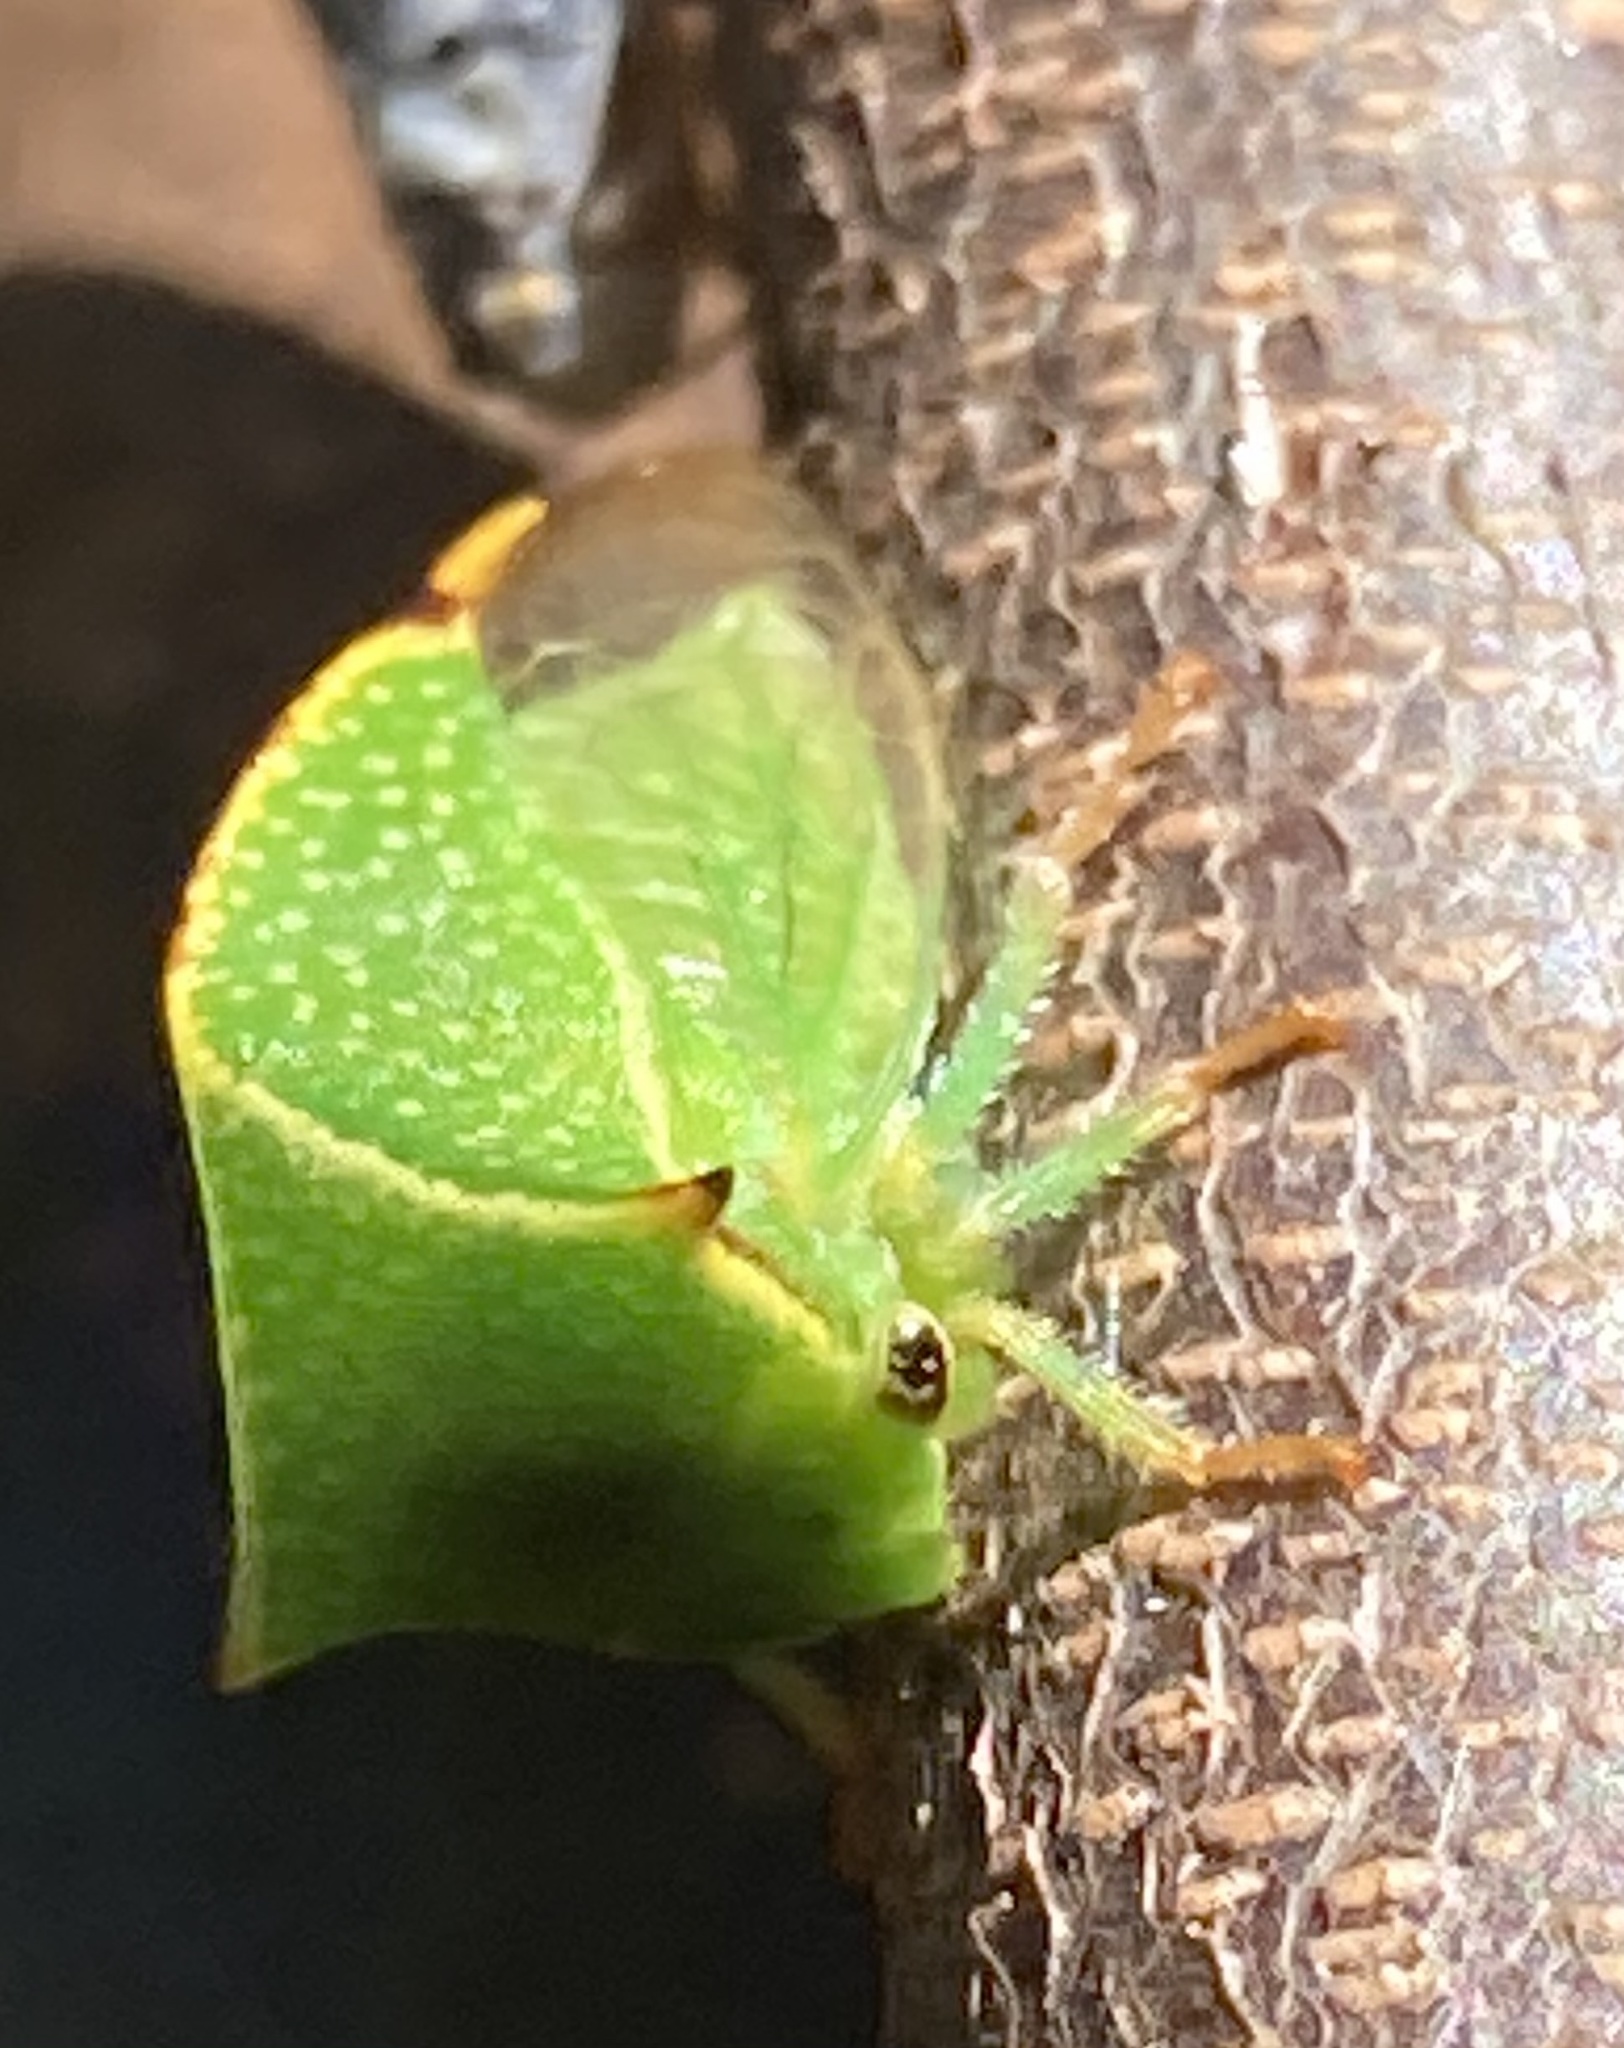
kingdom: Animalia
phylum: Arthropoda
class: Insecta
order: Hemiptera
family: Membracidae
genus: Stictocephala
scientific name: Stictocephala bisonia
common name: American buffalo treehopper
